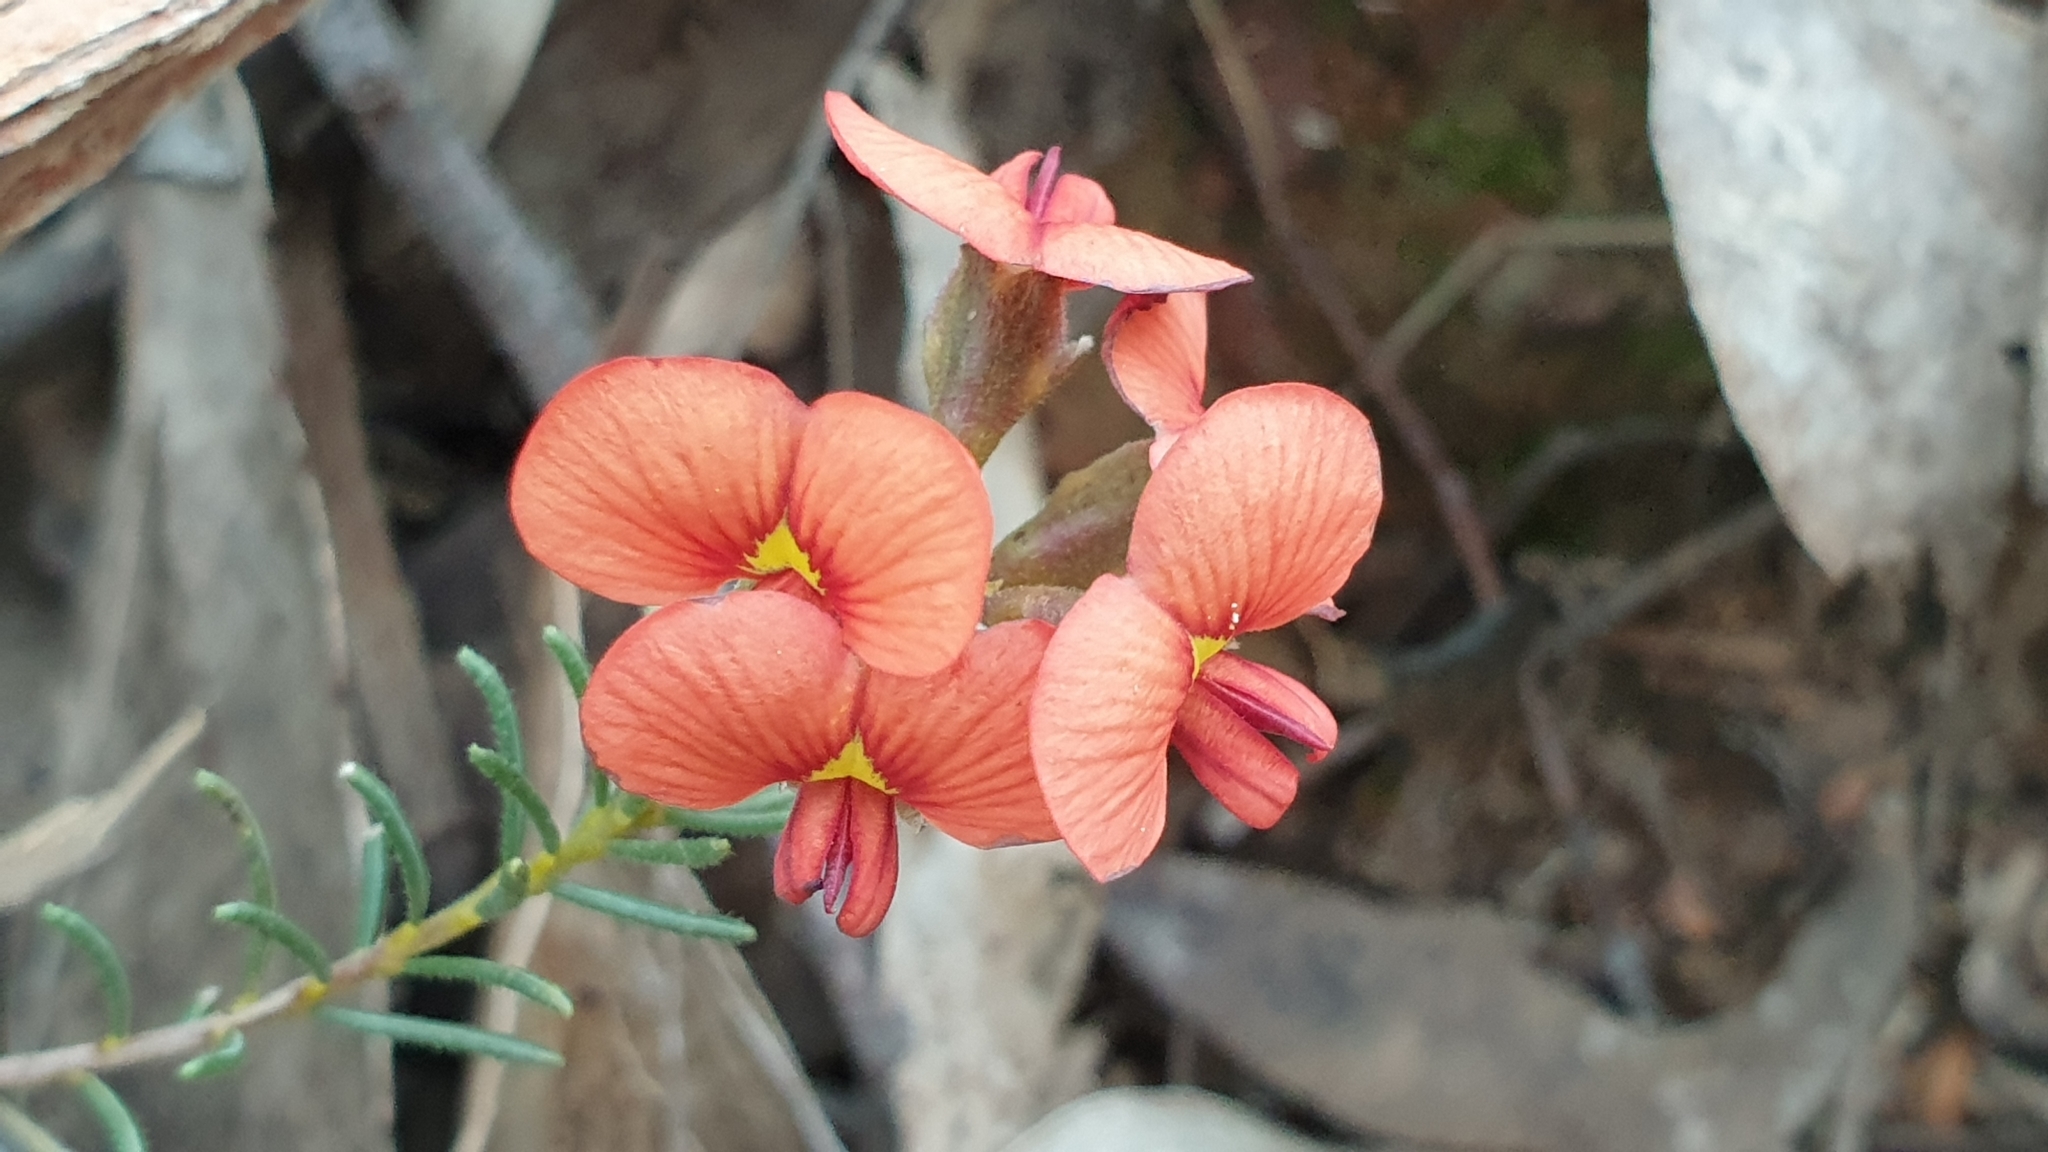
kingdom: Plantae
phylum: Tracheophyta
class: Magnoliopsida
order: Fabales
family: Fabaceae
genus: Dillwynia
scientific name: Dillwynia hispida
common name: Red parrot-pea
